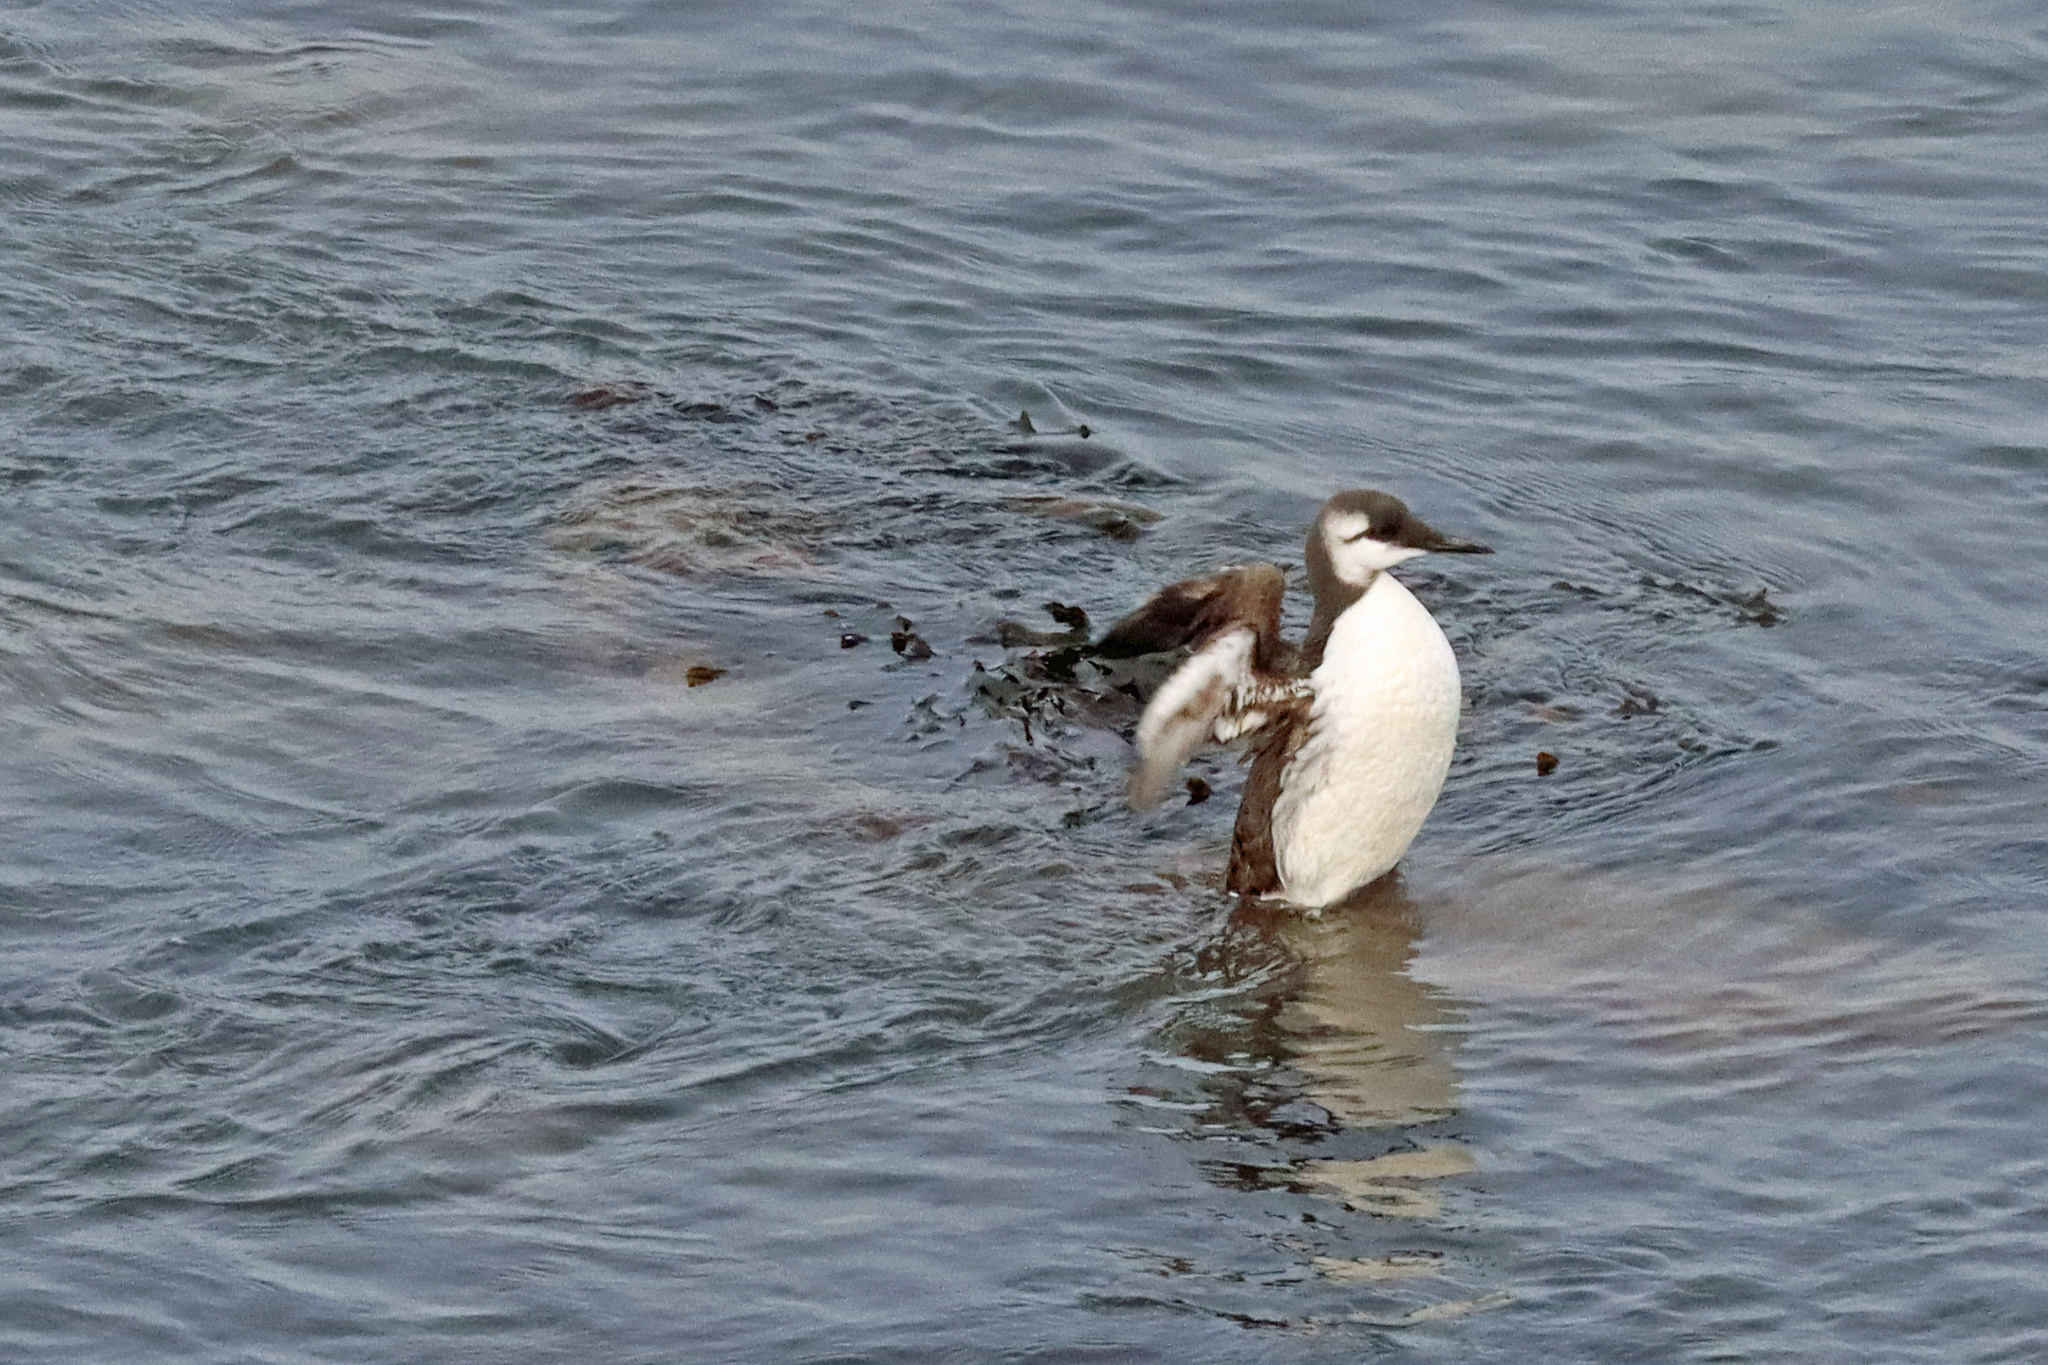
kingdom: Animalia
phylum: Chordata
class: Aves
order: Charadriiformes
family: Alcidae
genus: Uria
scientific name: Uria aalge
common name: Common murre
